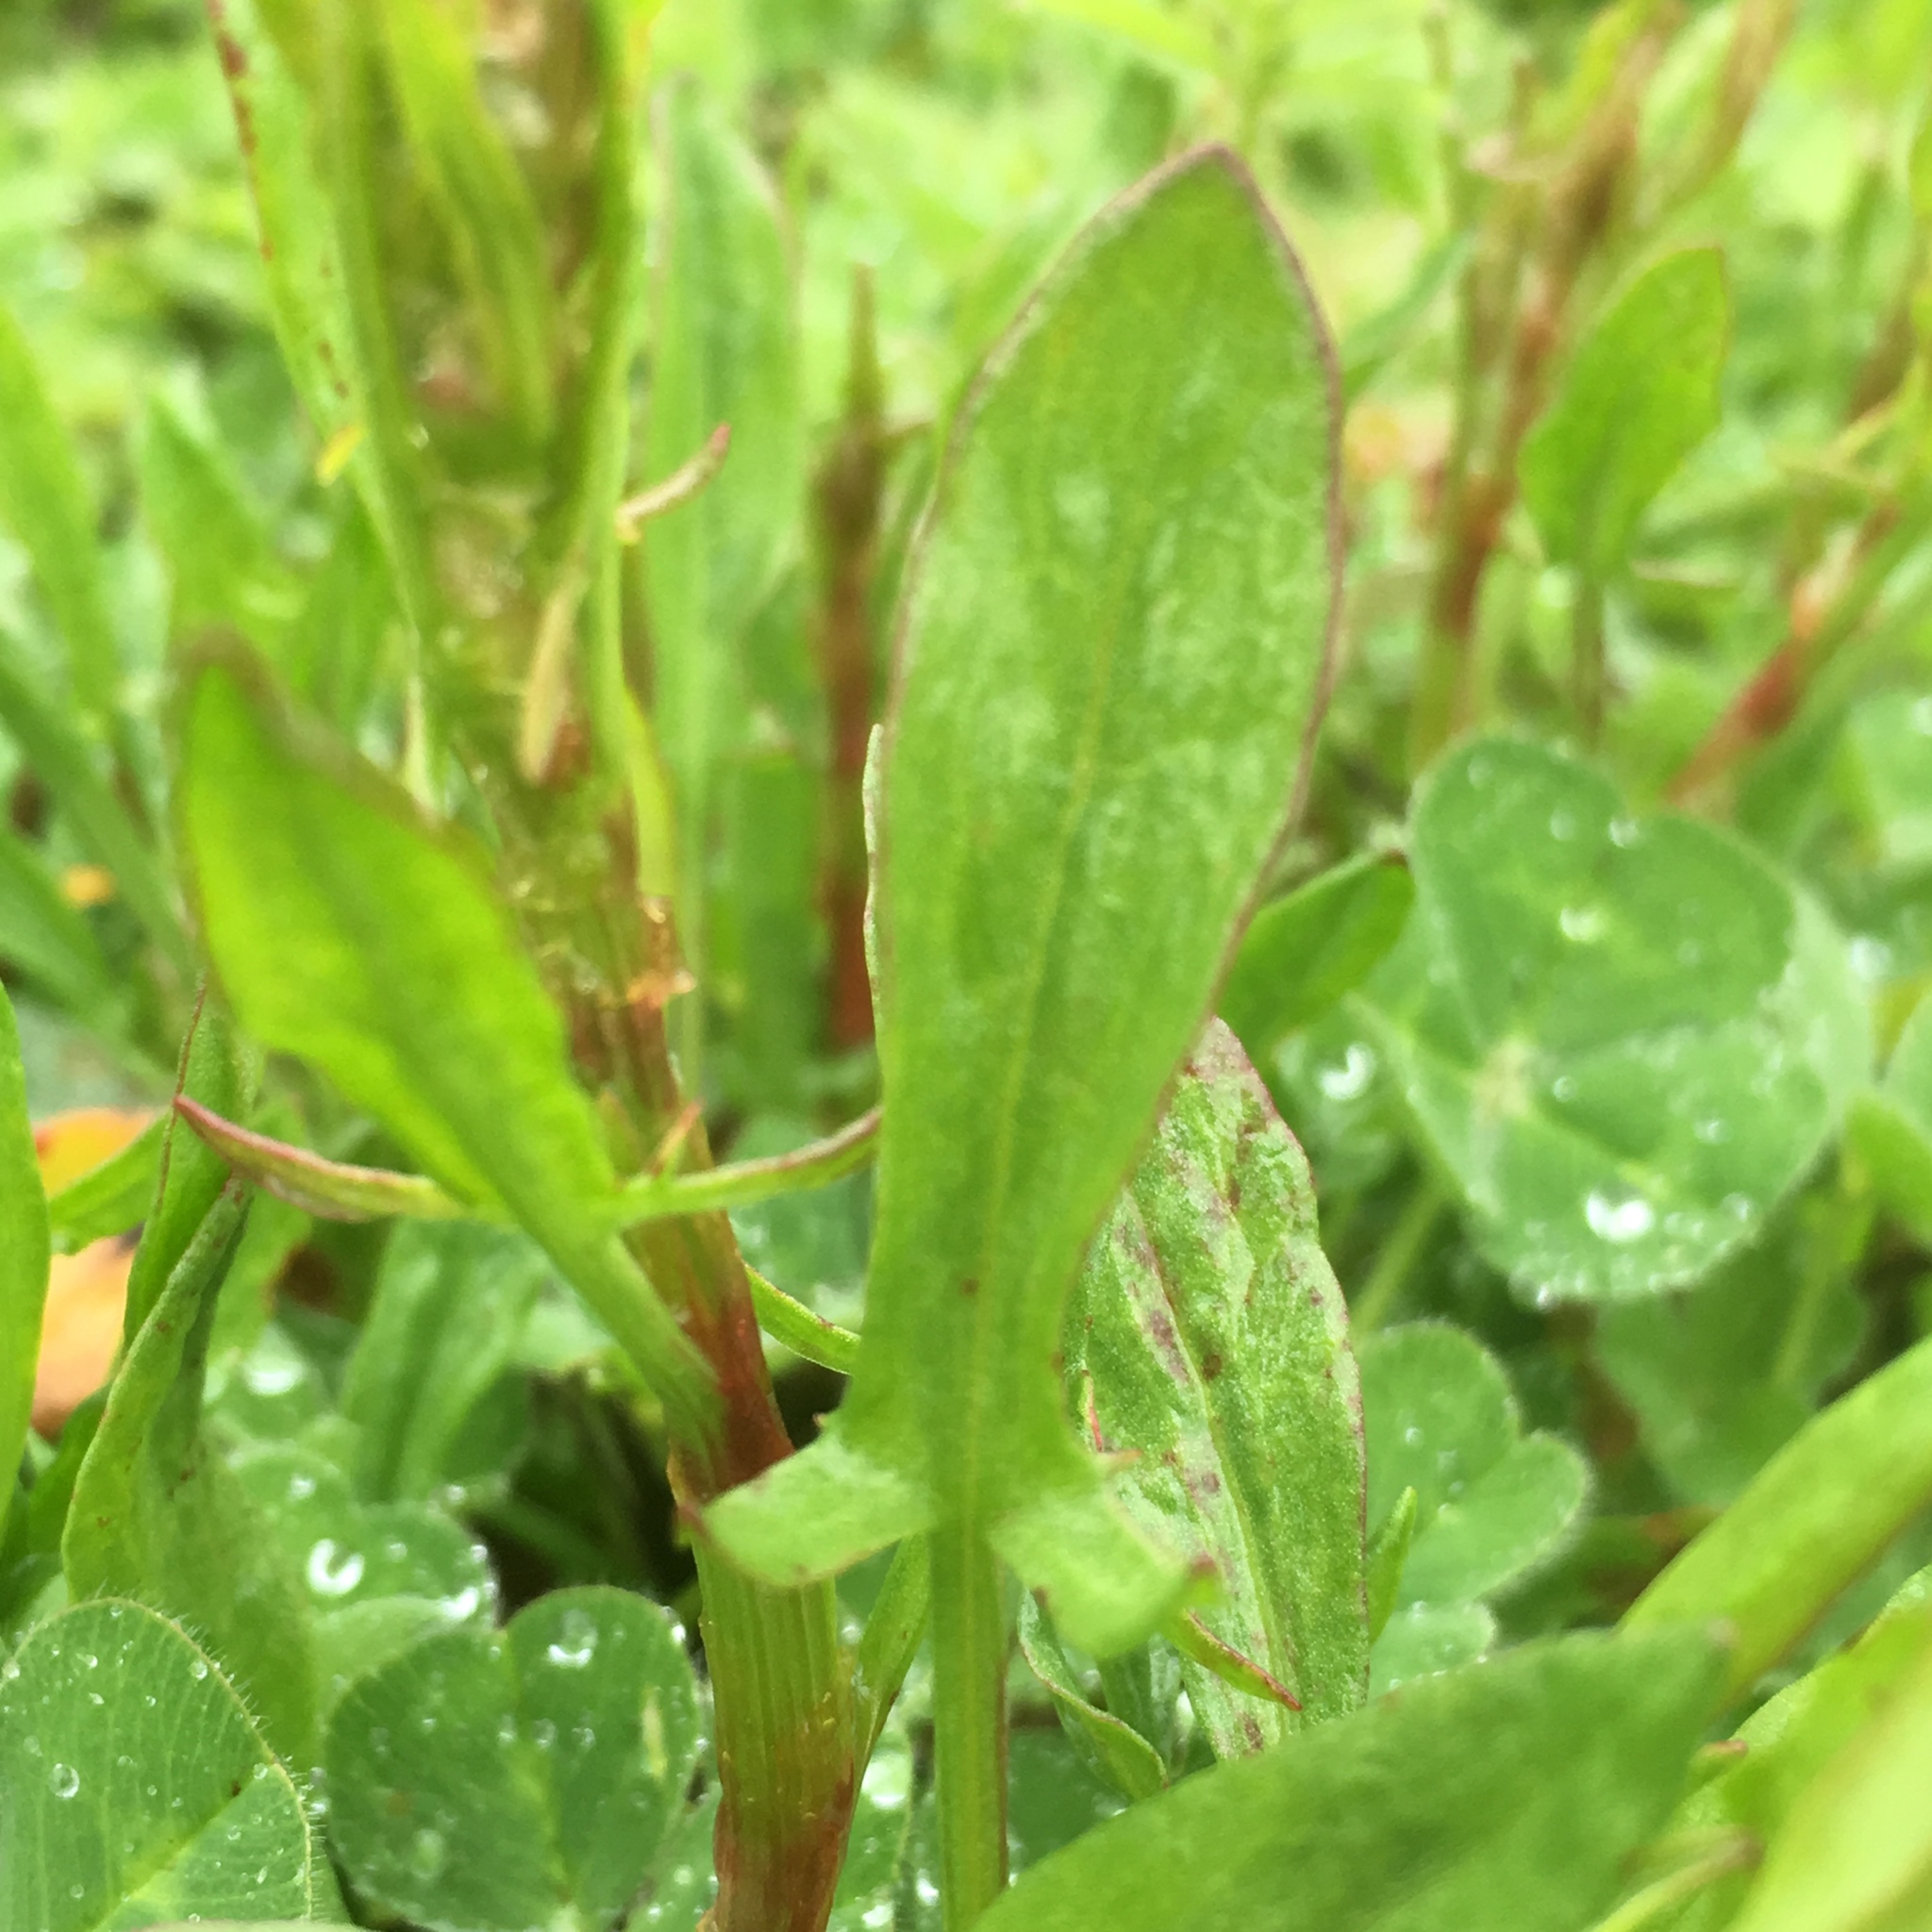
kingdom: Plantae
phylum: Tracheophyta
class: Magnoliopsida
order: Caryophyllales
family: Polygonaceae
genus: Rumex
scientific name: Rumex acetosella
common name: Common sheep sorrel
